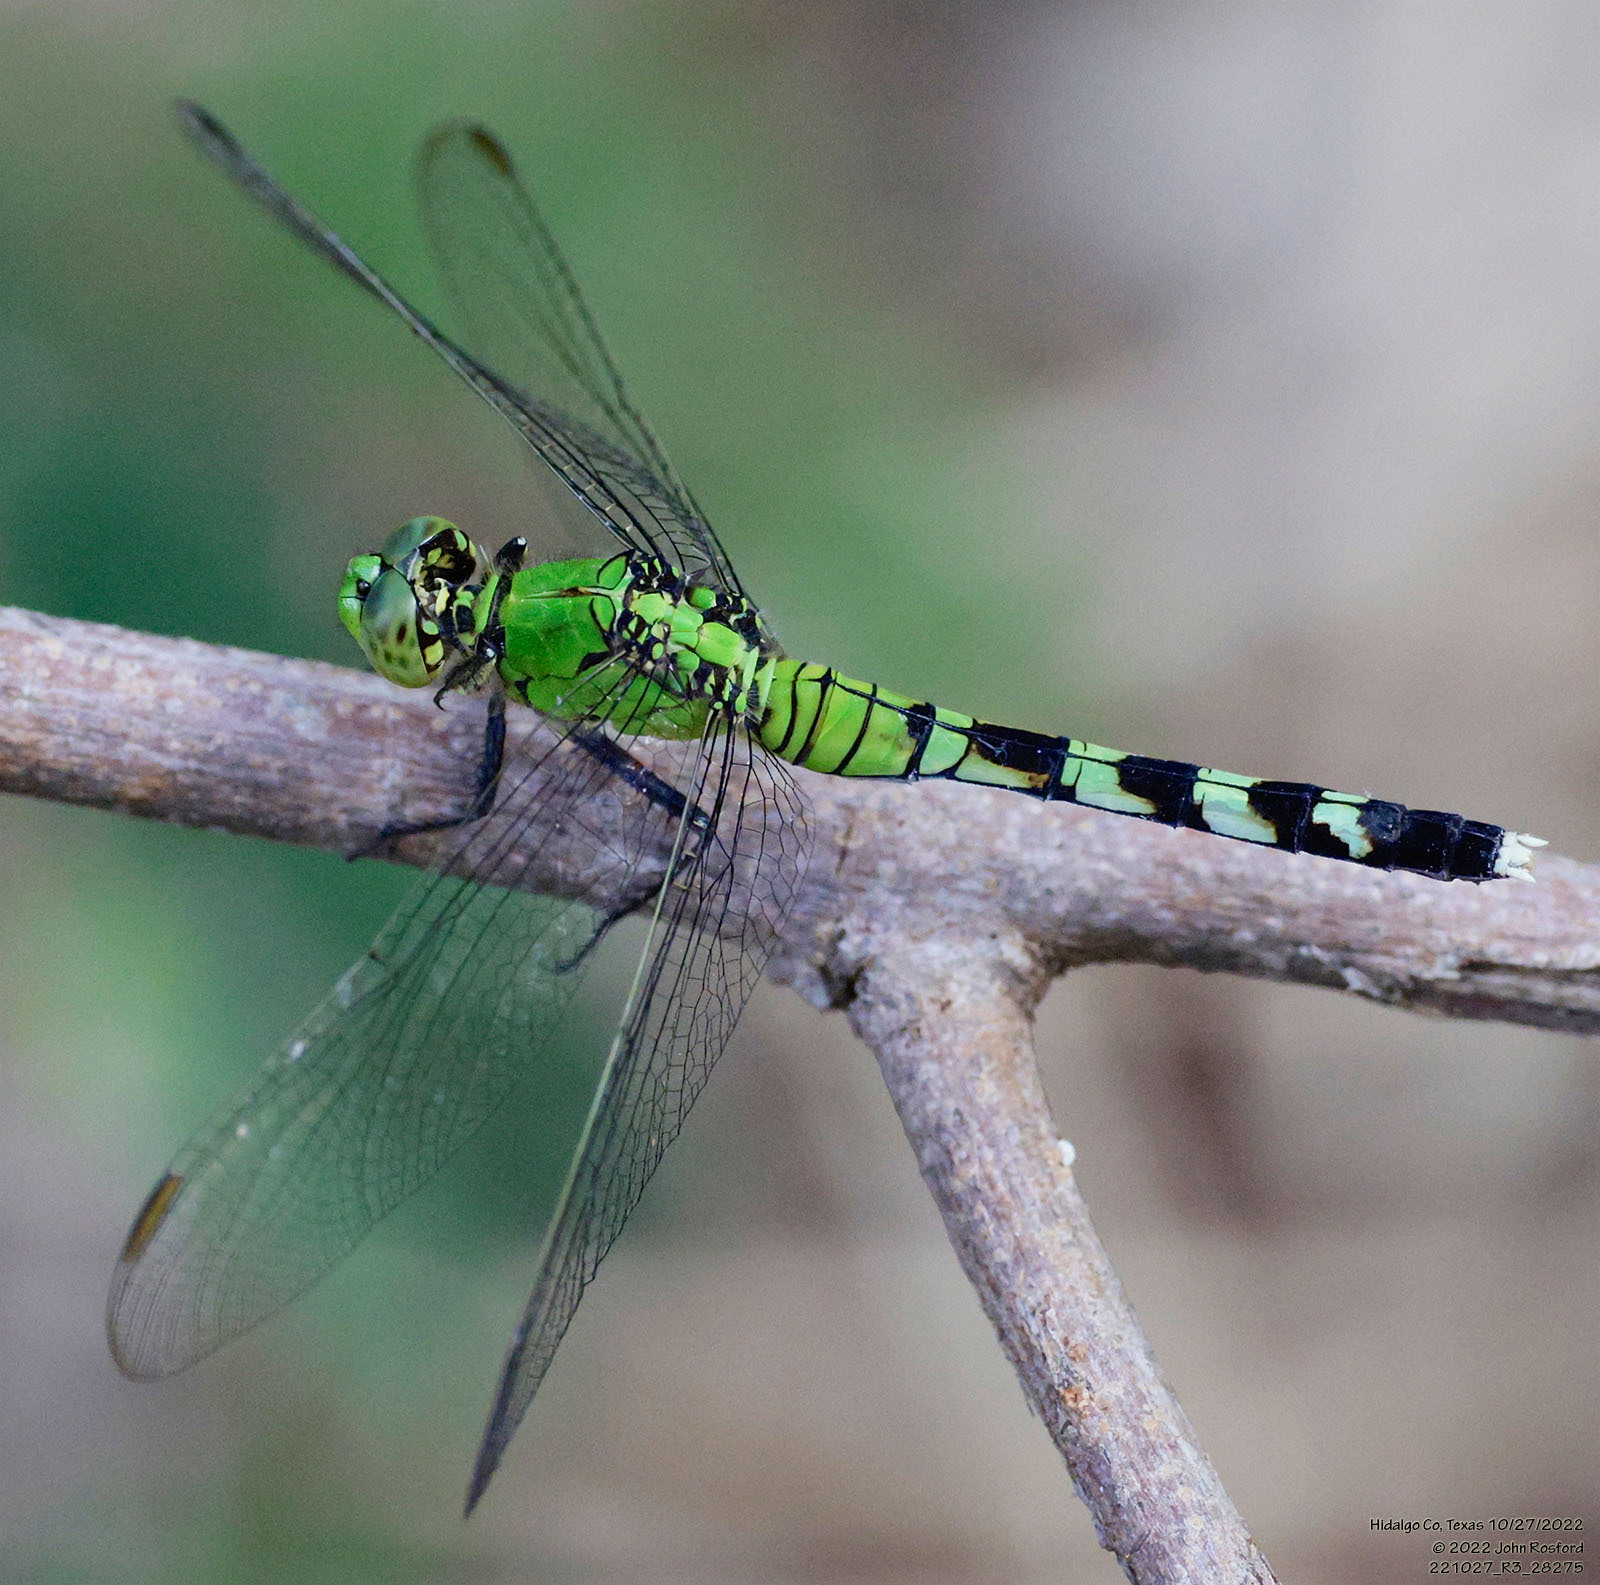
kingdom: Animalia
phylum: Arthropoda
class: Insecta
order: Odonata
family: Libellulidae
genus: Erythemis
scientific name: Erythemis simplicicollis
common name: Eastern pondhawk
